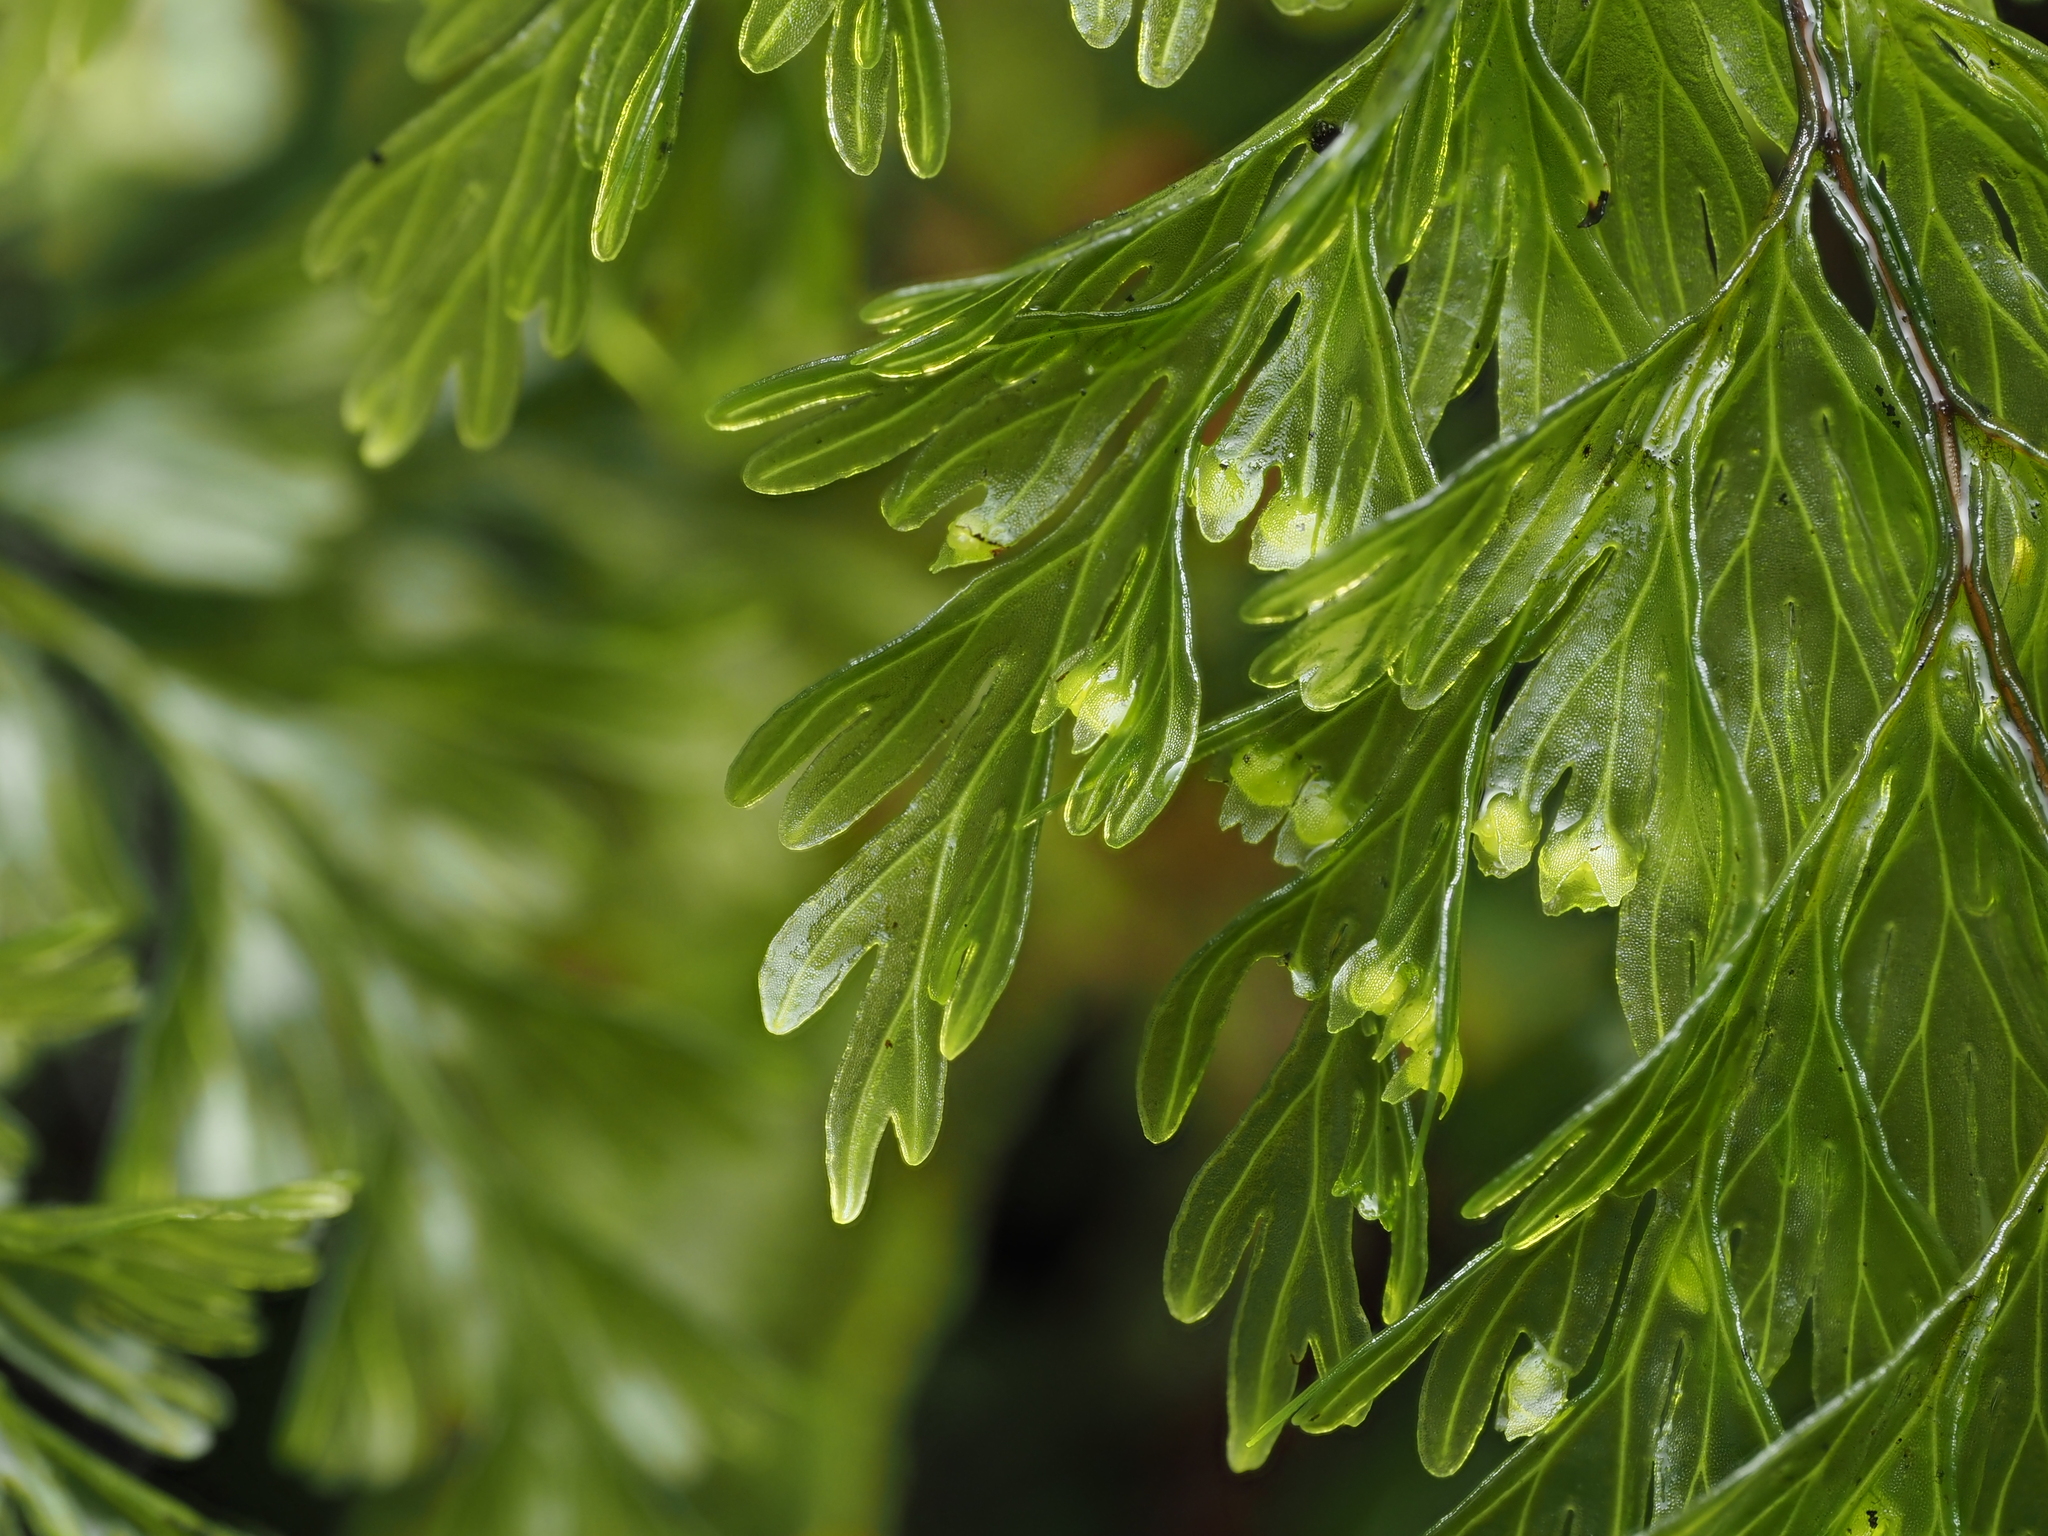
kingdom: Plantae
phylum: Tracheophyta
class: Polypodiopsida
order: Hymenophyllales
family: Hymenophyllaceae
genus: Hymenophyllum
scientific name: Hymenophyllum demissum
